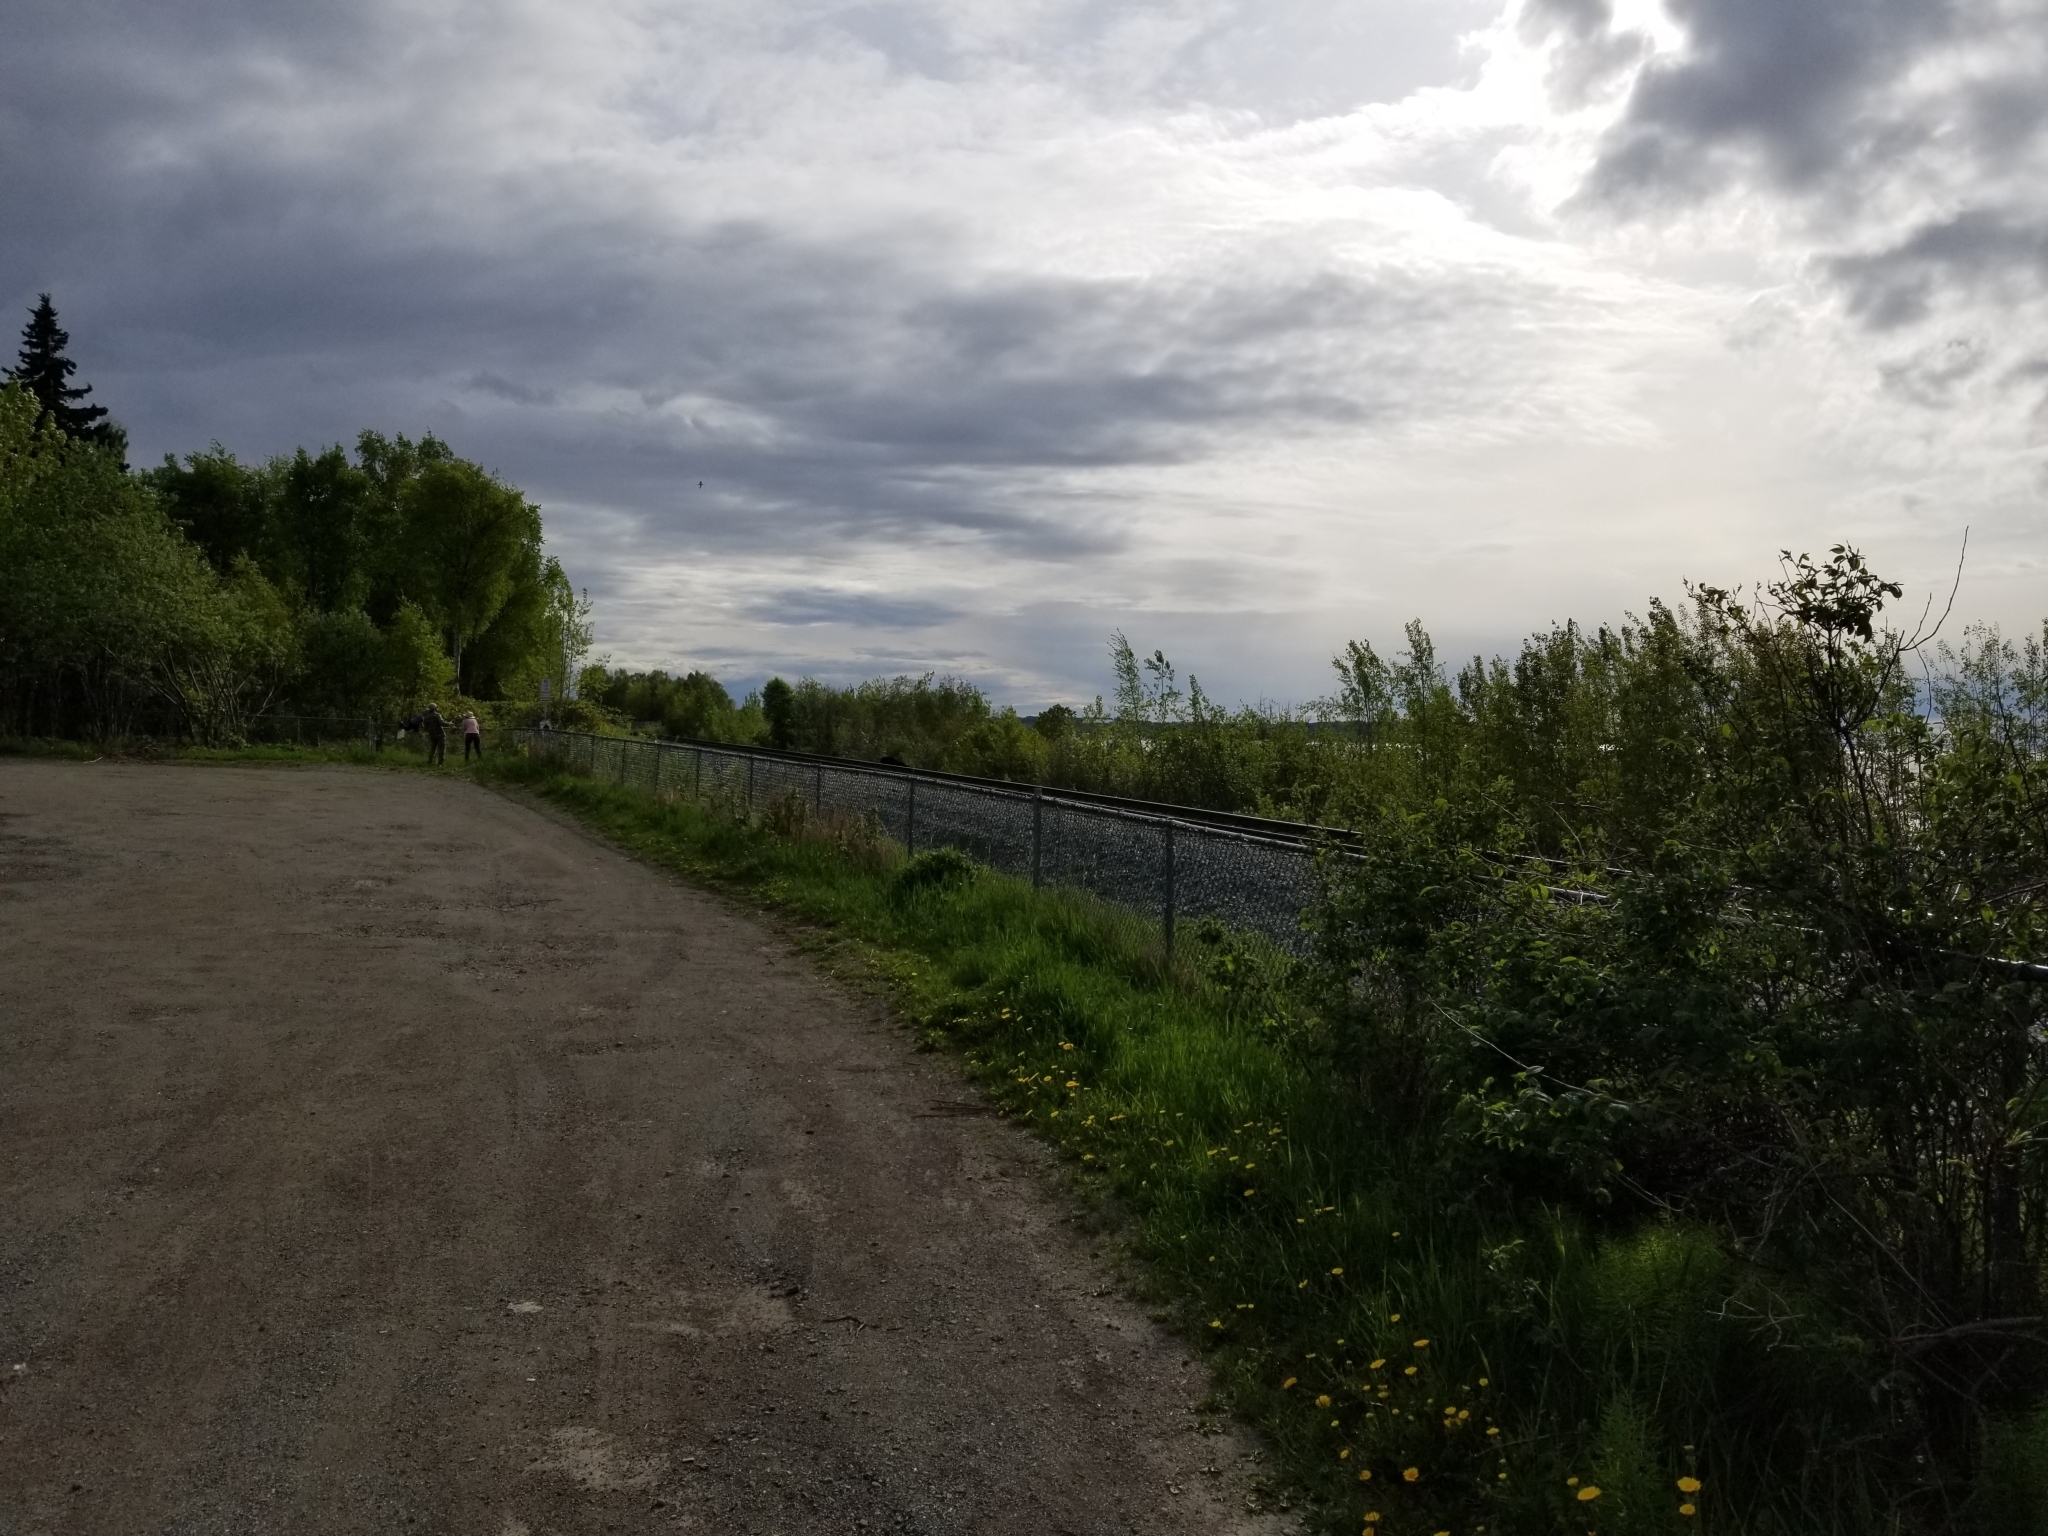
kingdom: Animalia
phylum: Chordata
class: Mammalia
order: Carnivora
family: Ursidae
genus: Ursus
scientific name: Ursus americanus
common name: American black bear
